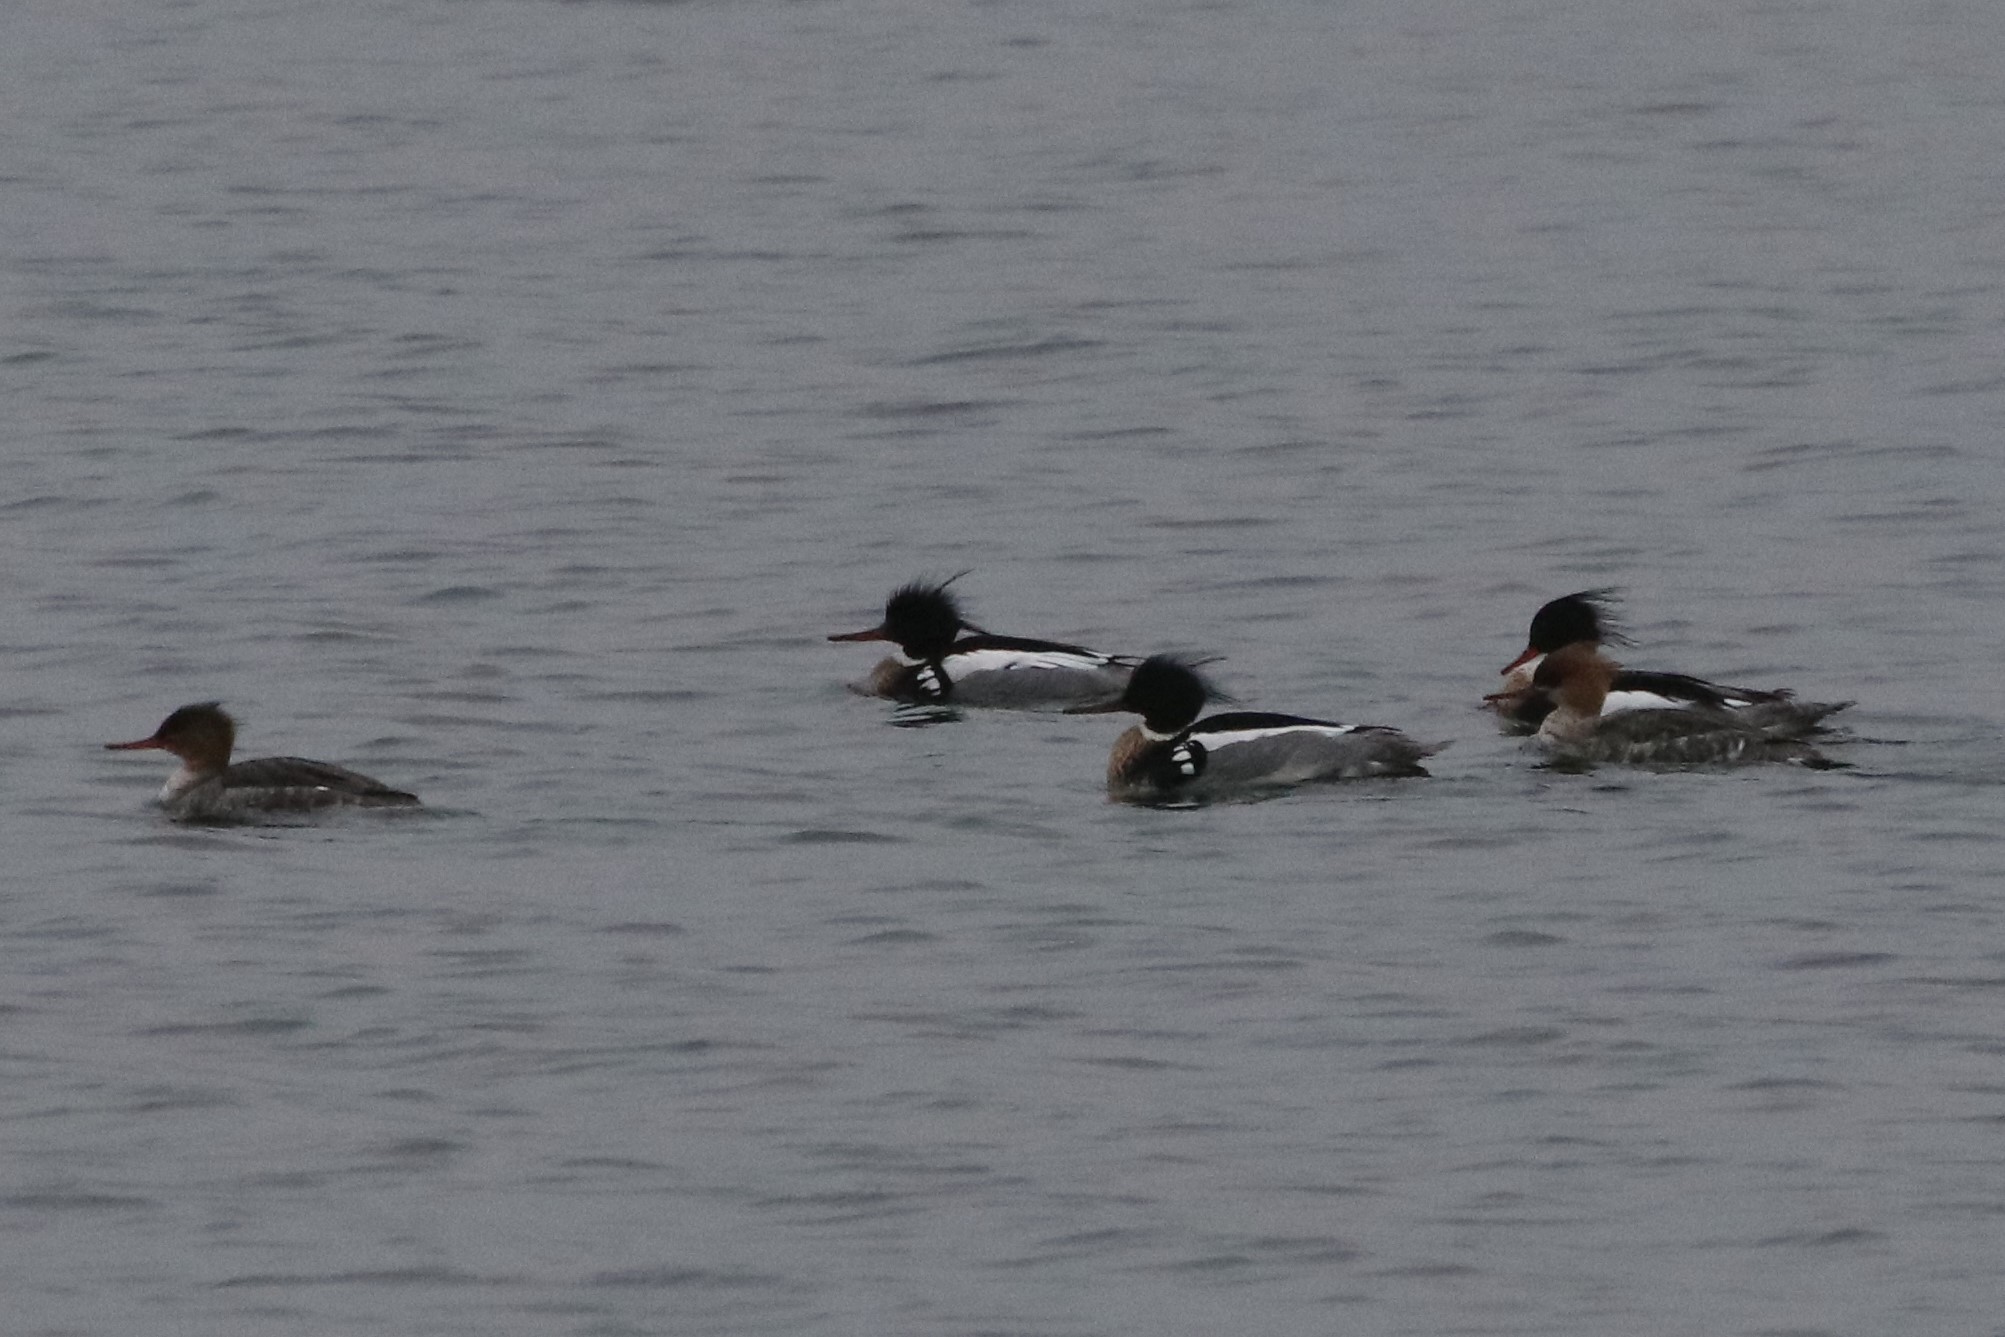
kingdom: Animalia
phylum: Chordata
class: Aves
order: Anseriformes
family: Anatidae
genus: Mergus
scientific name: Mergus serrator
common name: Red-breasted merganser
